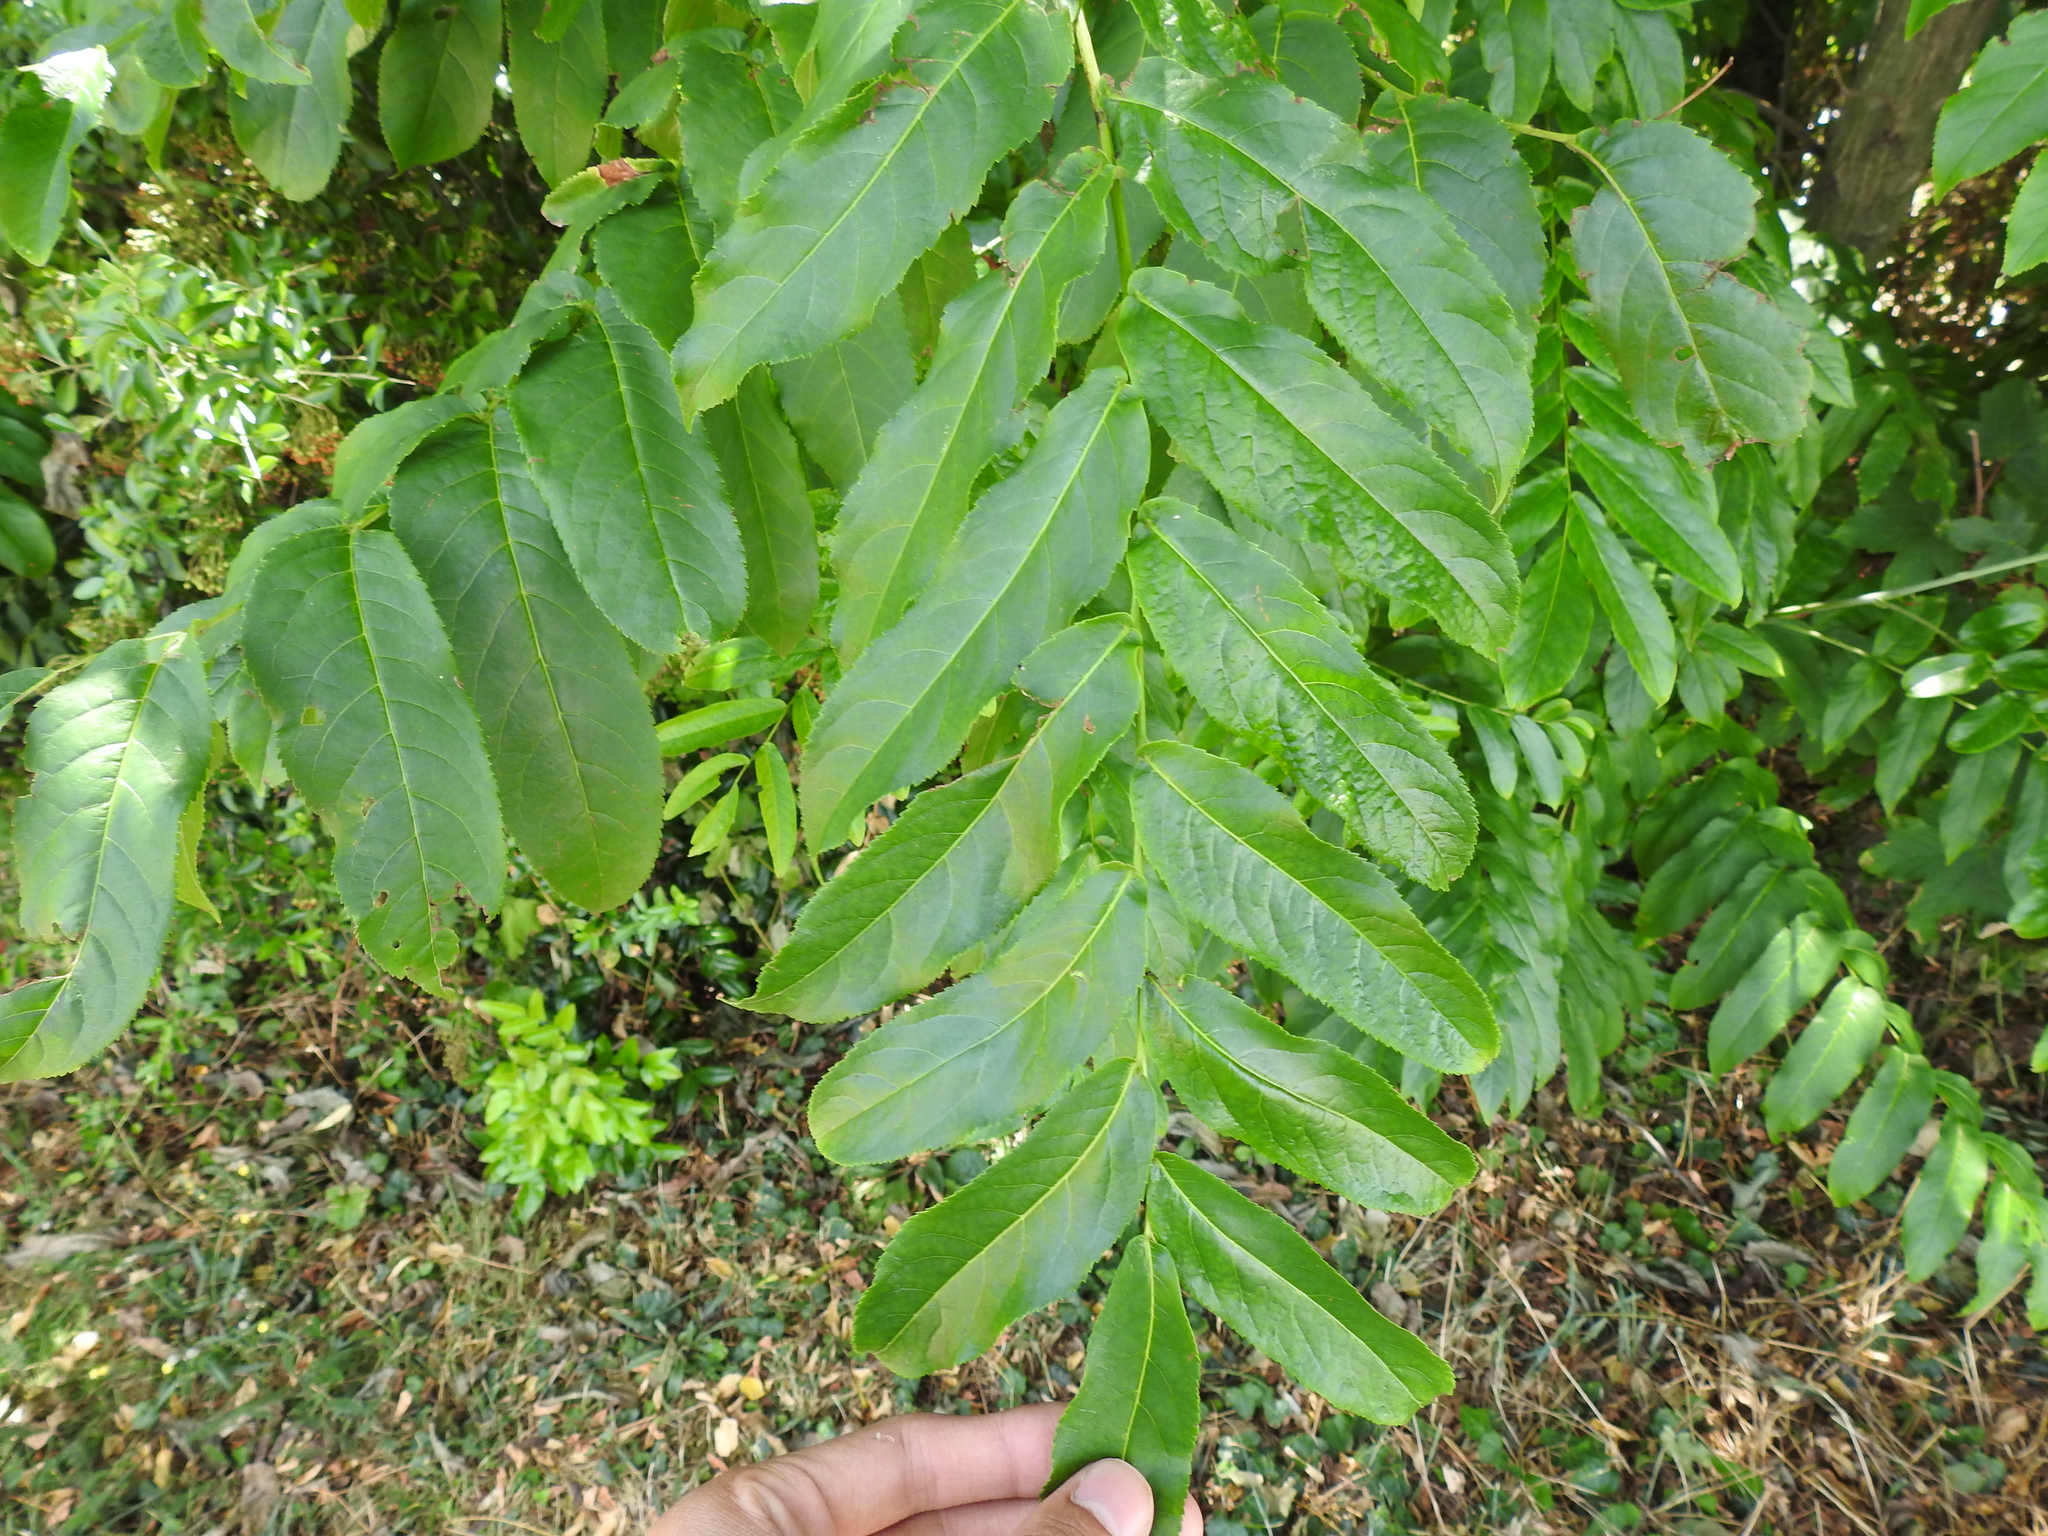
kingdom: Plantae
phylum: Tracheophyta
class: Magnoliopsida
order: Fagales
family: Juglandaceae
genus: Pterocarya
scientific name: Pterocarya fraxinifolia
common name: Caucasian wingnut
